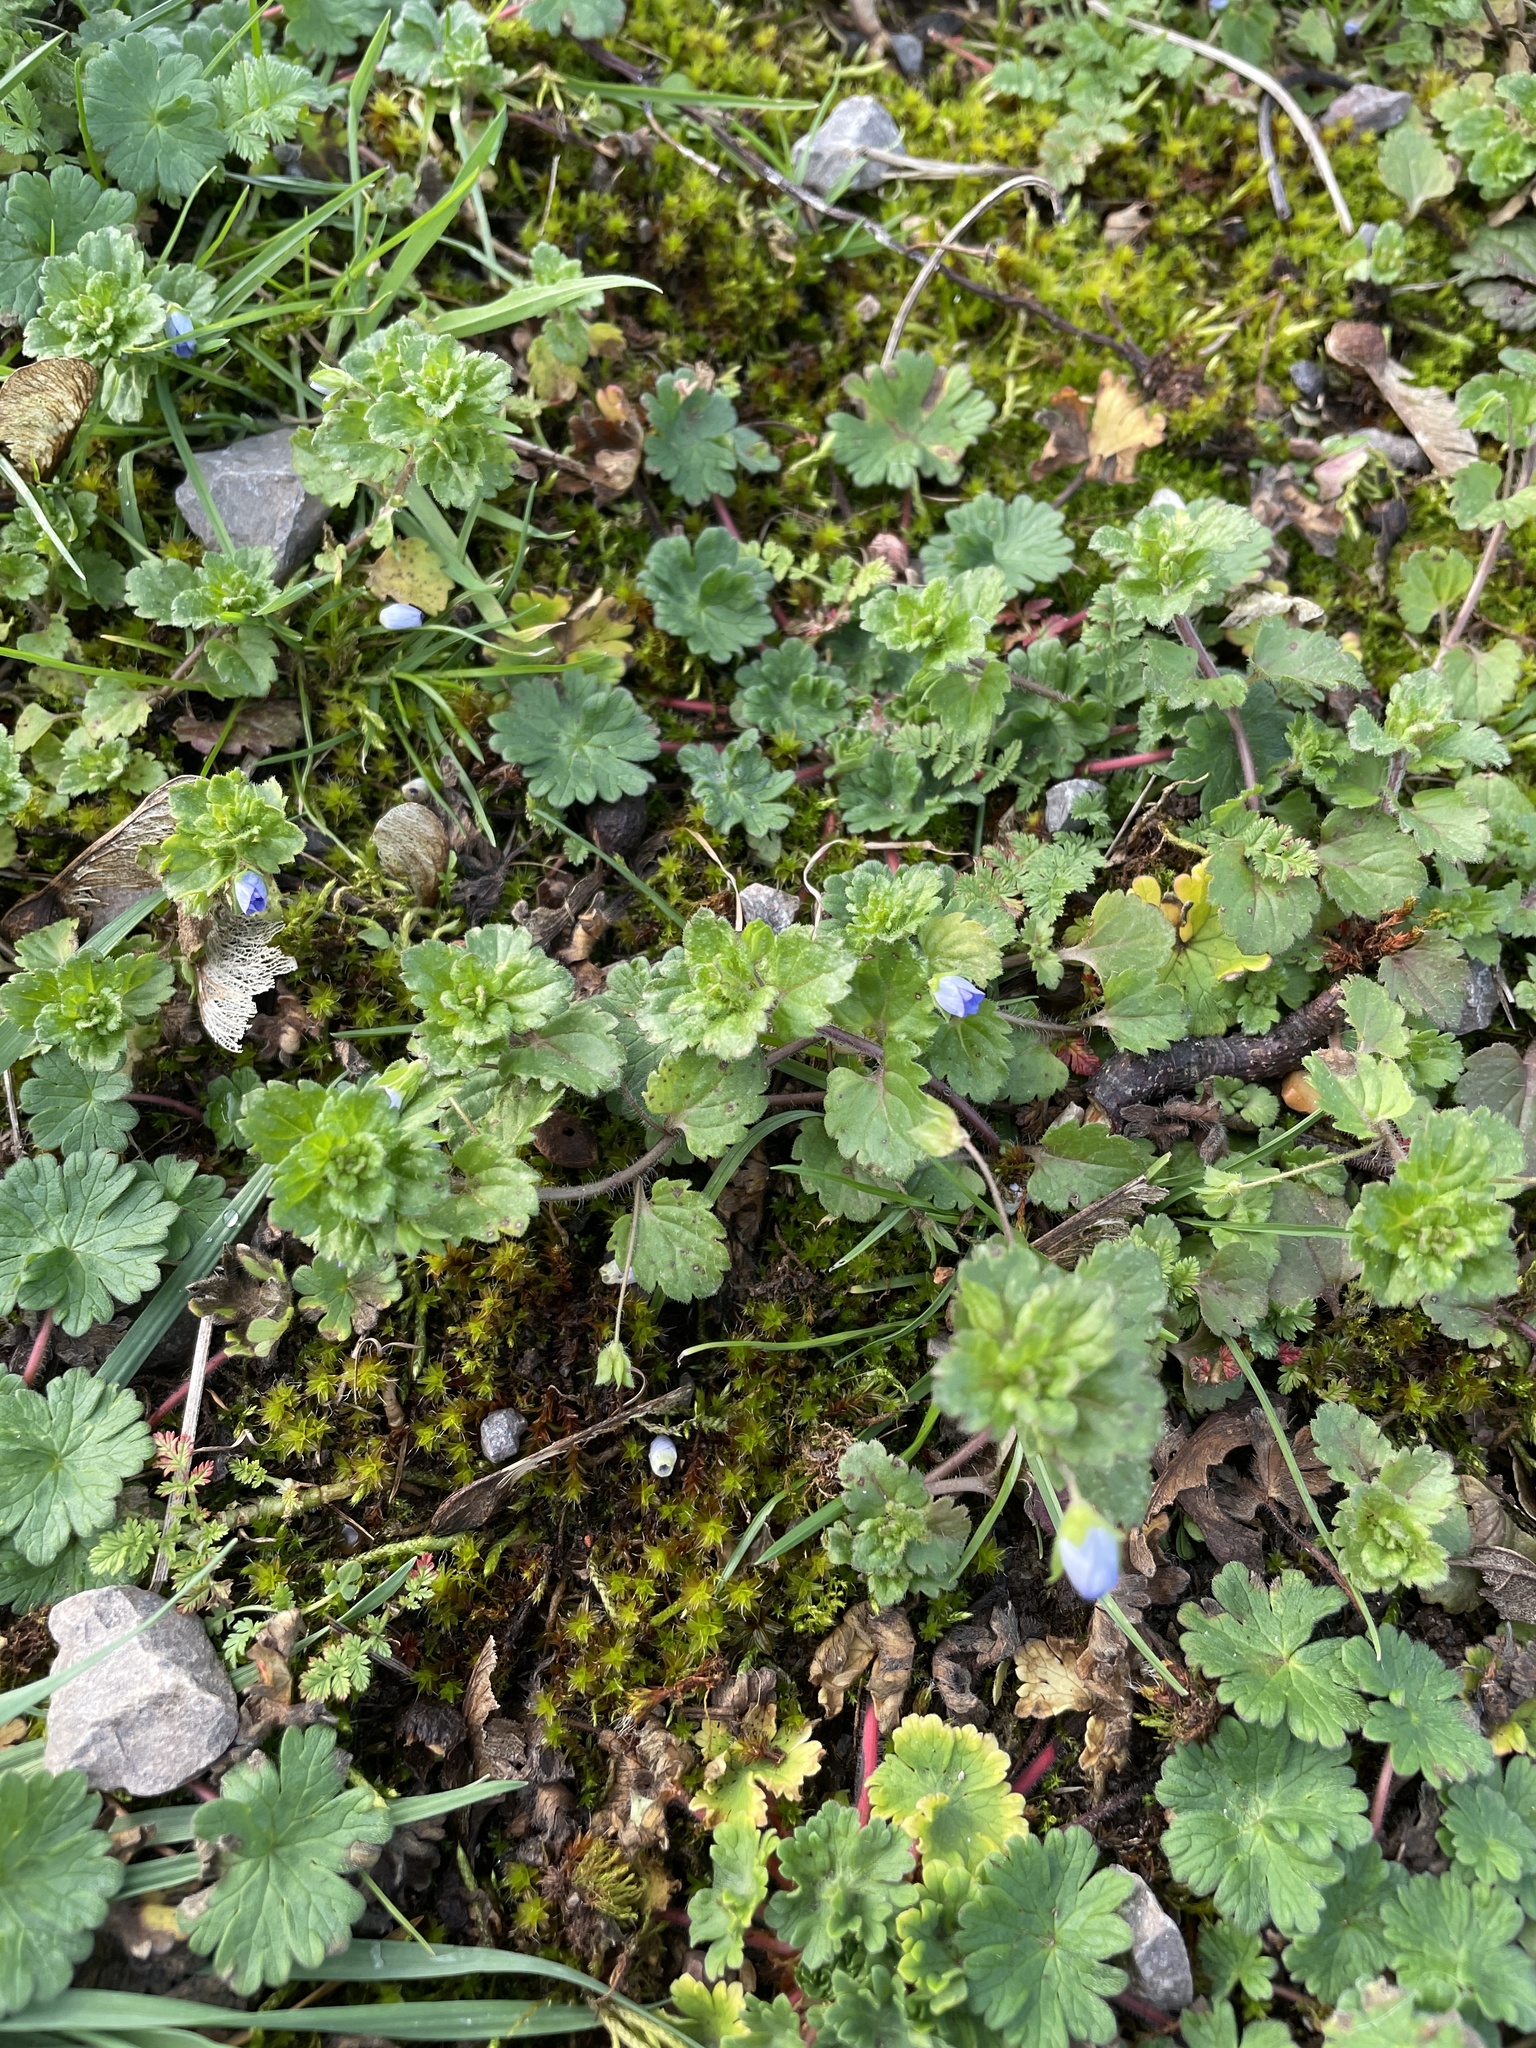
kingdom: Plantae
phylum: Tracheophyta
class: Magnoliopsida
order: Lamiales
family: Plantaginaceae
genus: Veronica
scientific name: Veronica persica
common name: Common field-speedwell
